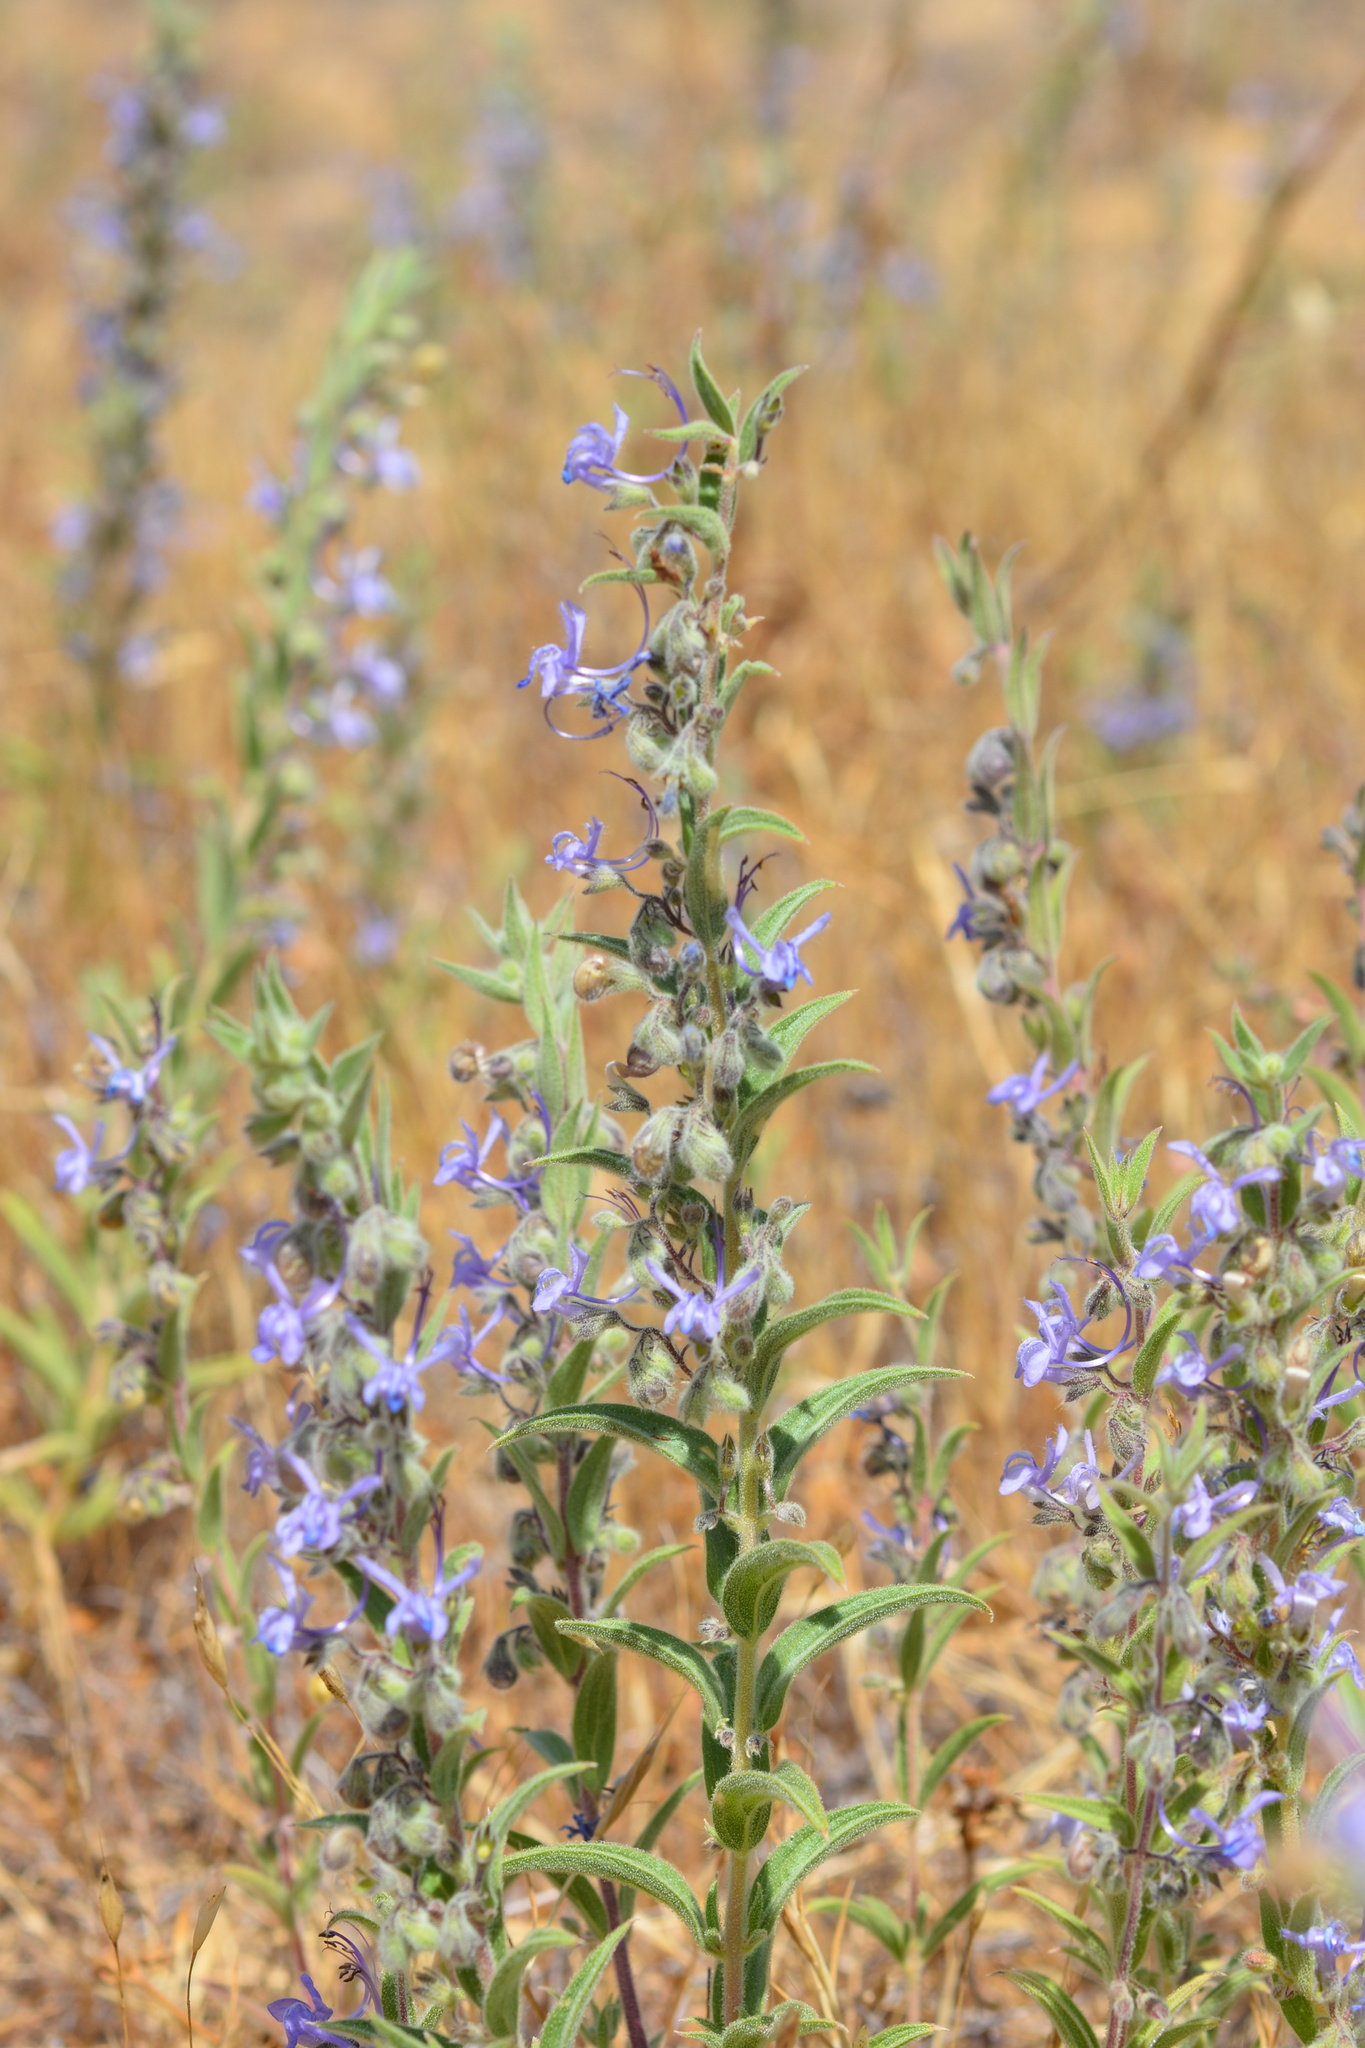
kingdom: Plantae
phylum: Tracheophyta
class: Magnoliopsida
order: Lamiales
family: Lamiaceae
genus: Trichostema
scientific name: Trichostema lanceolatum
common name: Vinegar-weed
